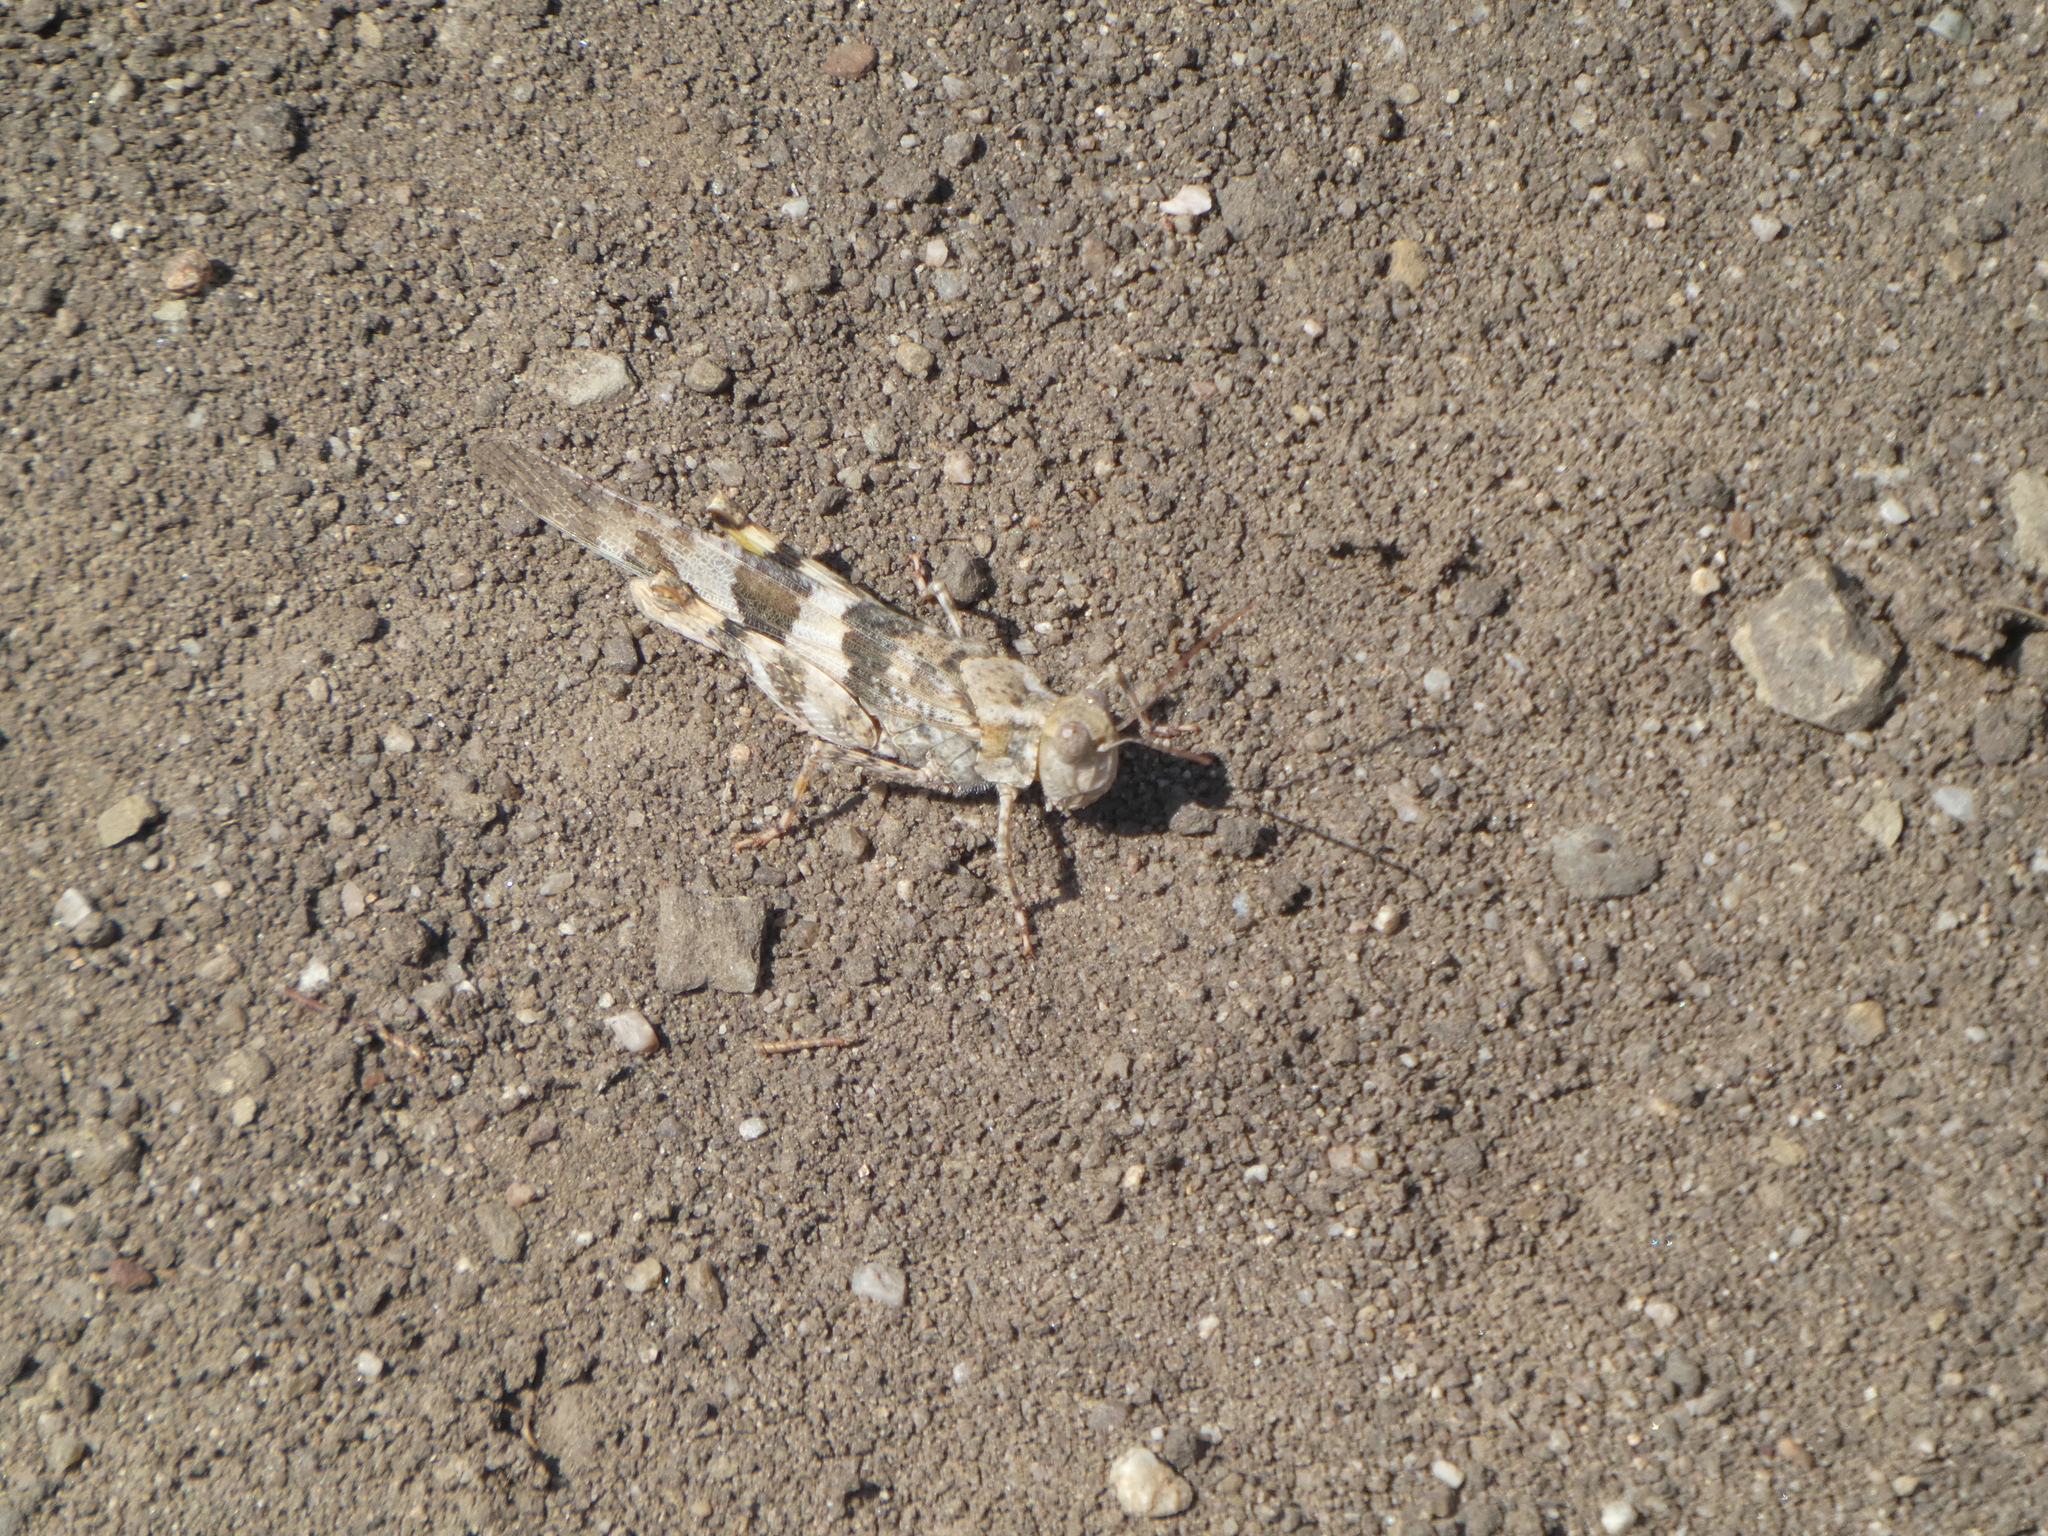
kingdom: Animalia
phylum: Arthropoda
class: Insecta
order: Orthoptera
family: Acrididae
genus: Trimerotropis
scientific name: Trimerotropis pallidipennis
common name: Pallid-winged grasshopper
